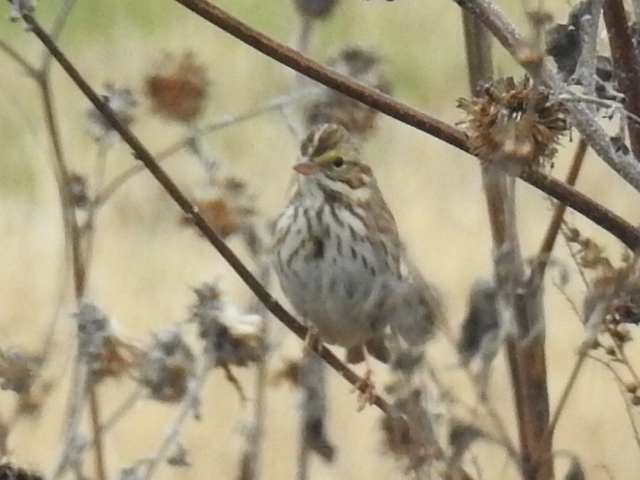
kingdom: Animalia
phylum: Chordata
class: Aves
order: Passeriformes
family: Passerellidae
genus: Passerculus
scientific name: Passerculus sandwichensis
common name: Savannah sparrow
